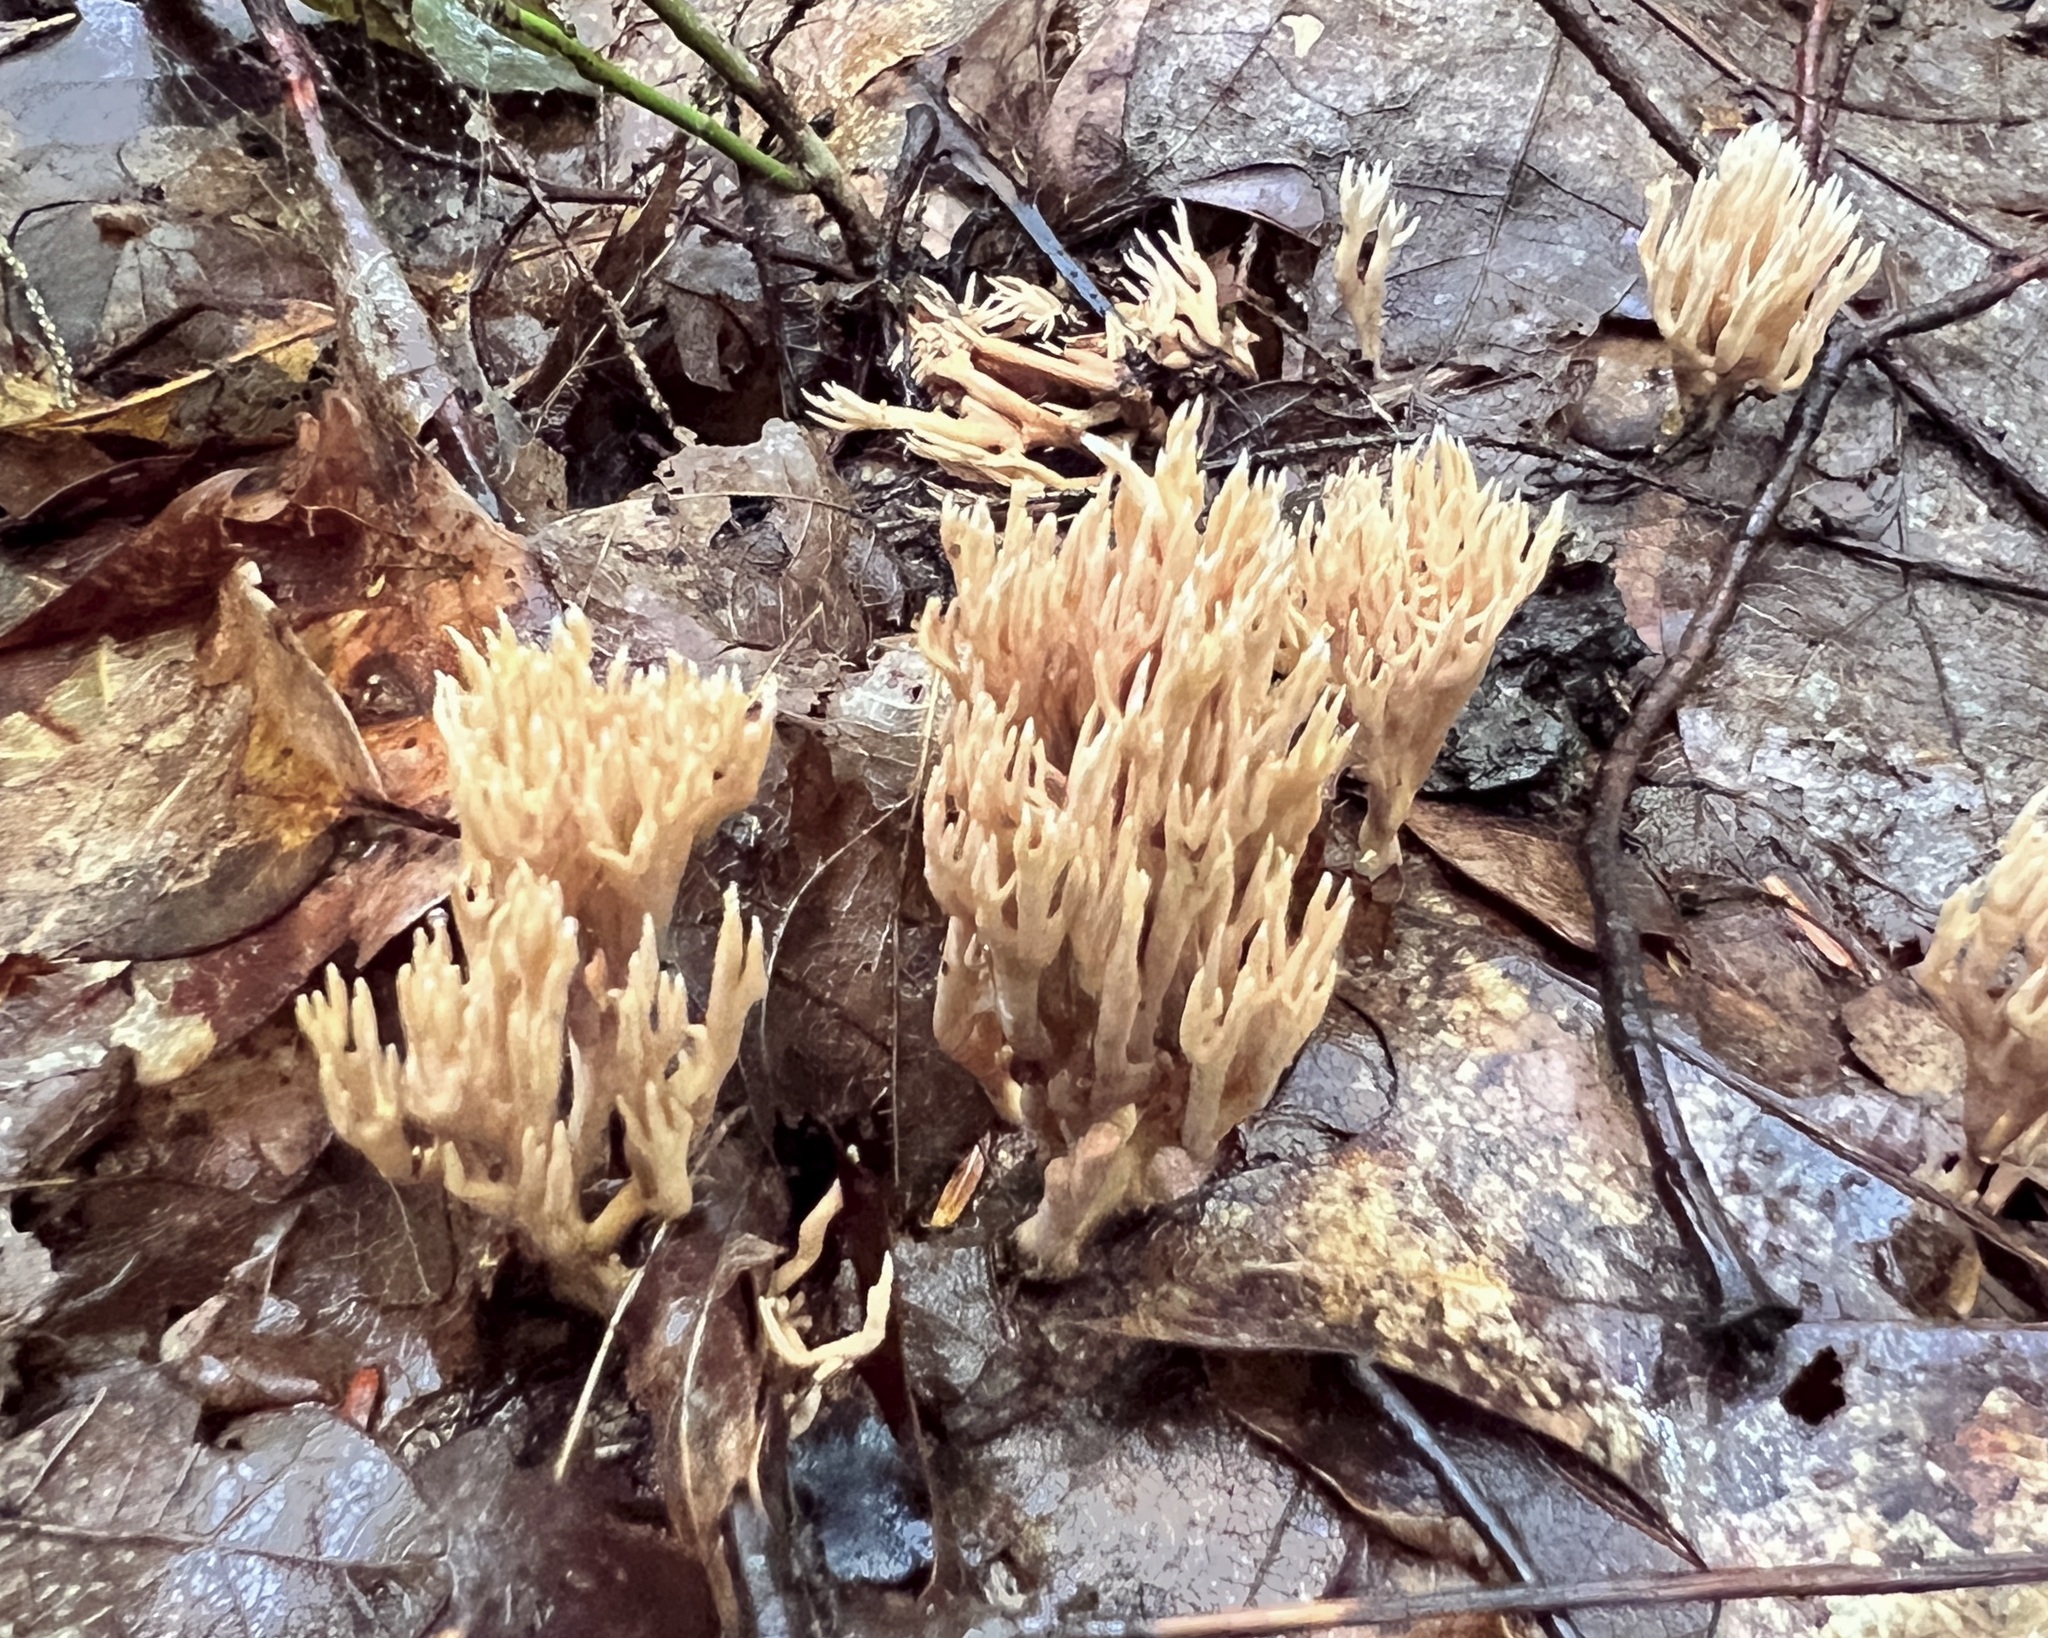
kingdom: Fungi
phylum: Basidiomycota
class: Agaricomycetes
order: Gomphales
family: Lentariaceae
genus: Lentaria
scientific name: Lentaria byssiseda
